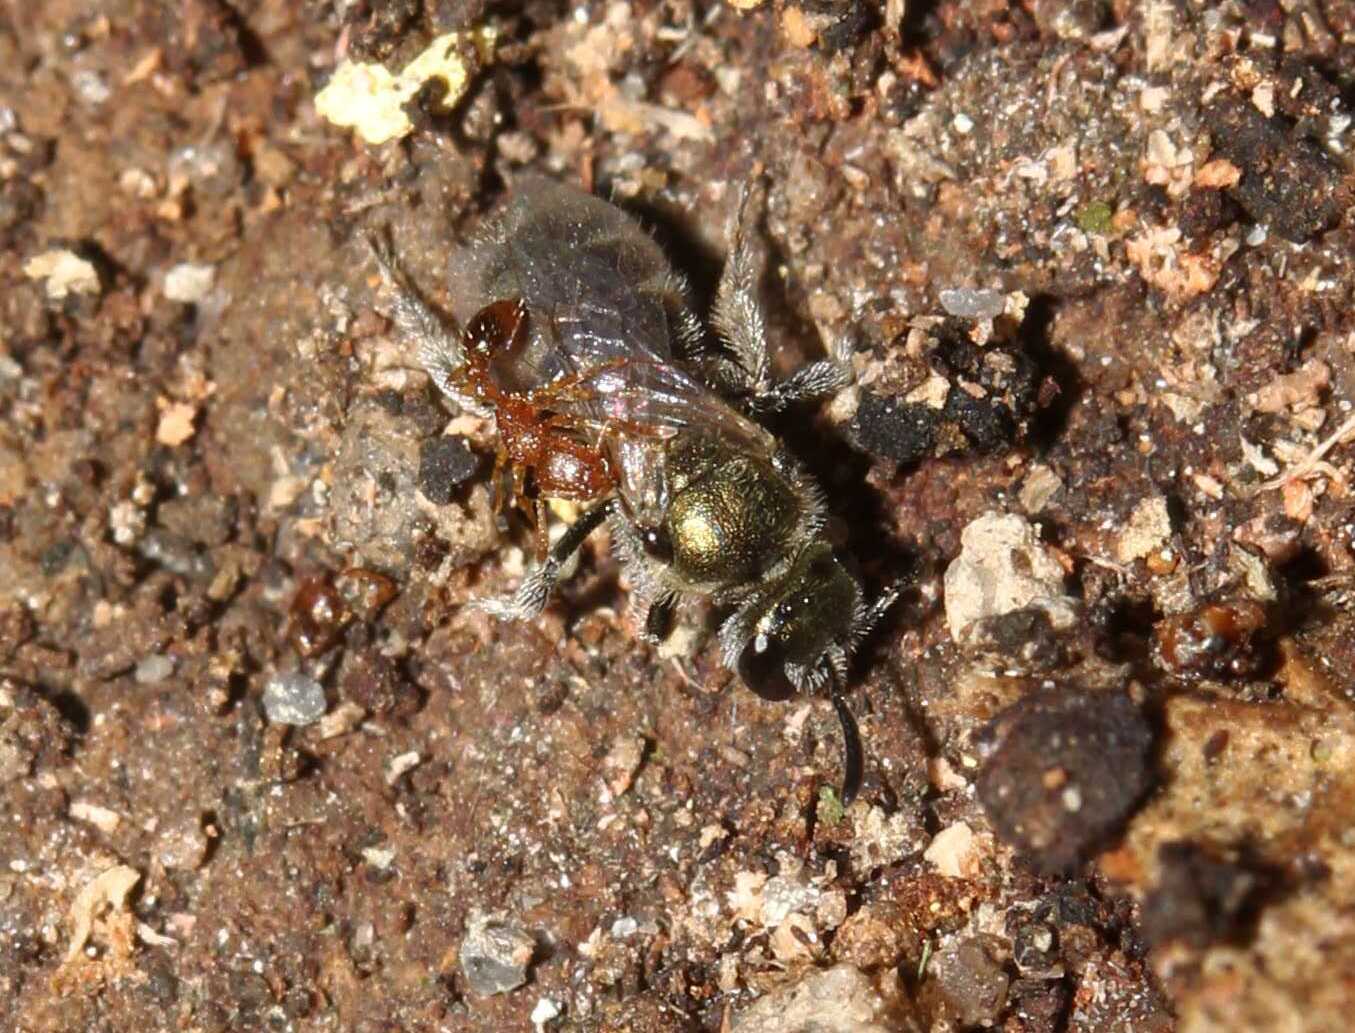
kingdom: Animalia
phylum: Arthropoda
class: Insecta
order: Hymenoptera
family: Halictidae
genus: Dialictus
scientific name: Dialictus
